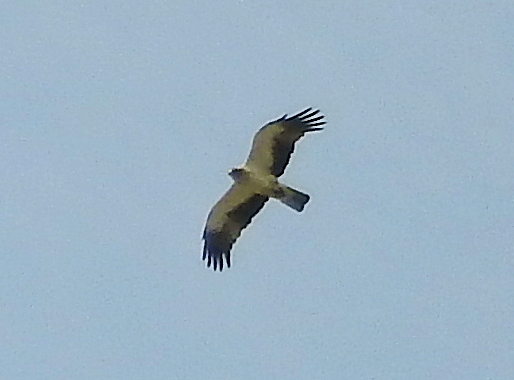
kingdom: Animalia
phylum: Chordata
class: Aves
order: Accipitriformes
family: Accipitridae
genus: Hieraaetus
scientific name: Hieraaetus pennatus
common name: Booted eagle
